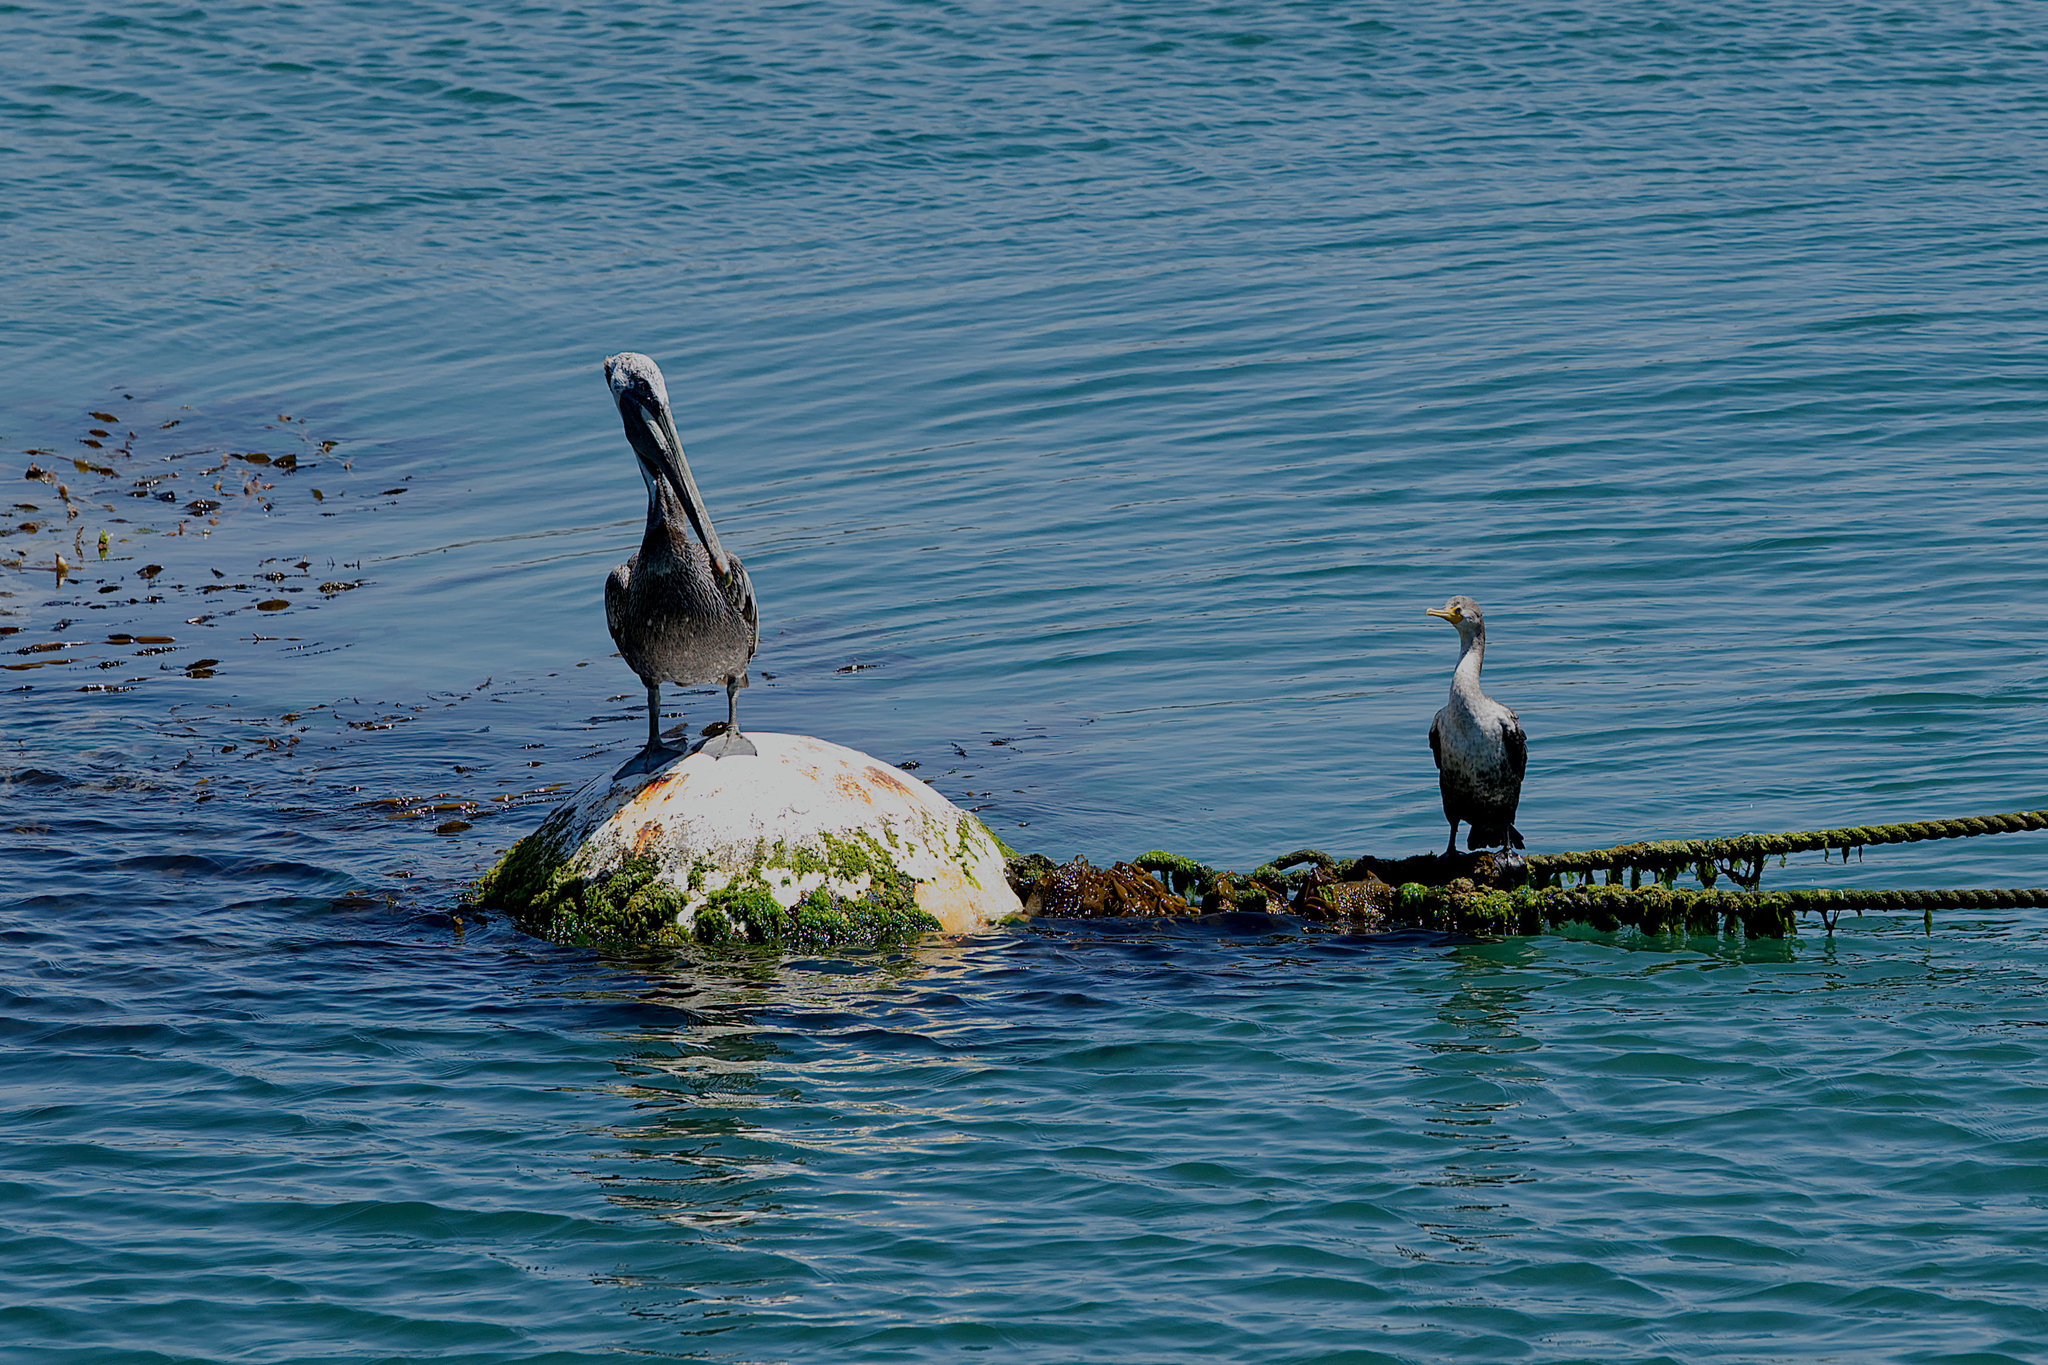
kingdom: Animalia
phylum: Chordata
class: Aves
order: Suliformes
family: Phalacrocoracidae
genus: Phalacrocorax
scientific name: Phalacrocorax auritus
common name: Double-crested cormorant
